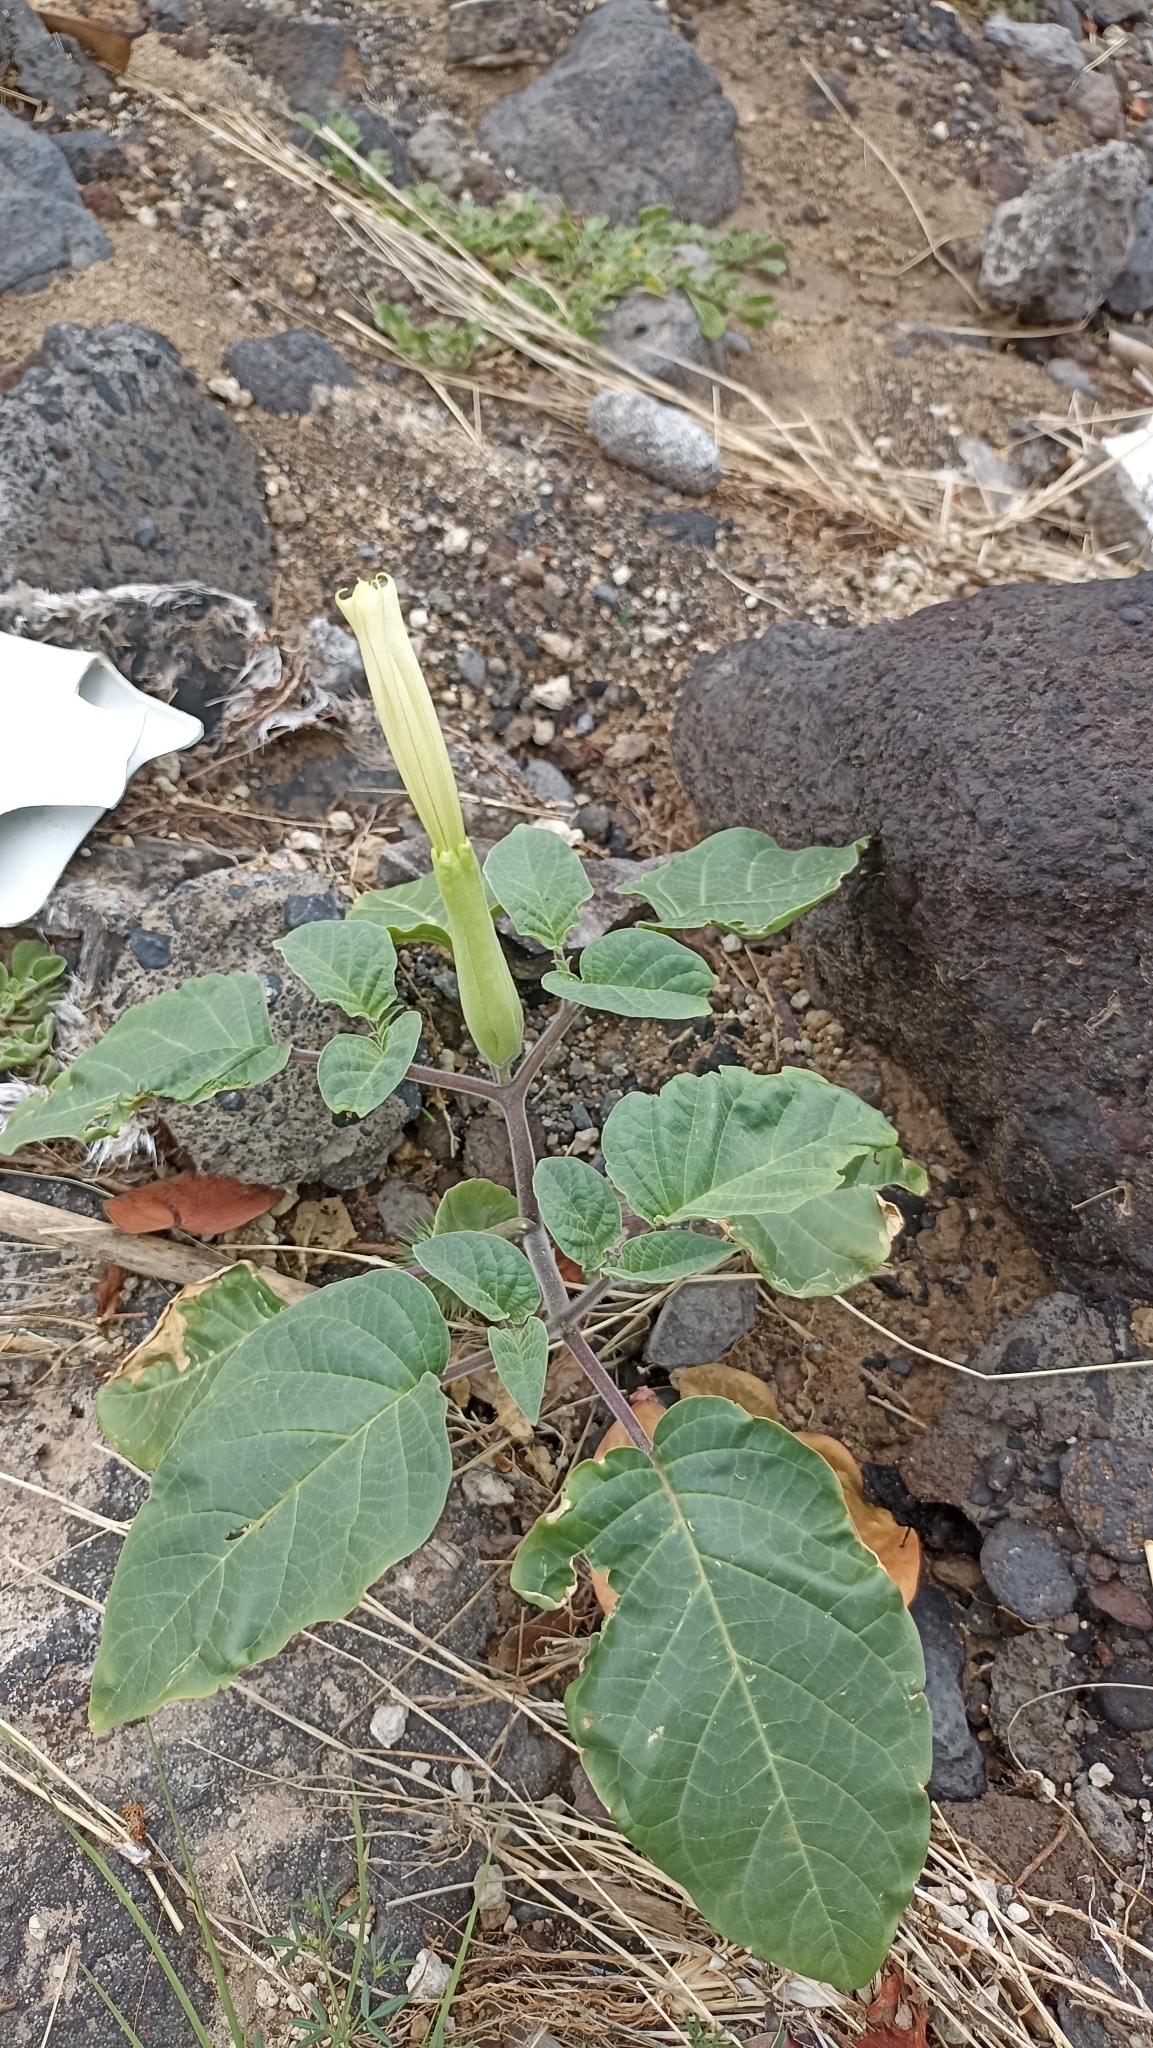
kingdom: Plantae
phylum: Tracheophyta
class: Magnoliopsida
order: Solanales
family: Solanaceae
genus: Datura
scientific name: Datura innoxia
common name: Downy thorn-apple
